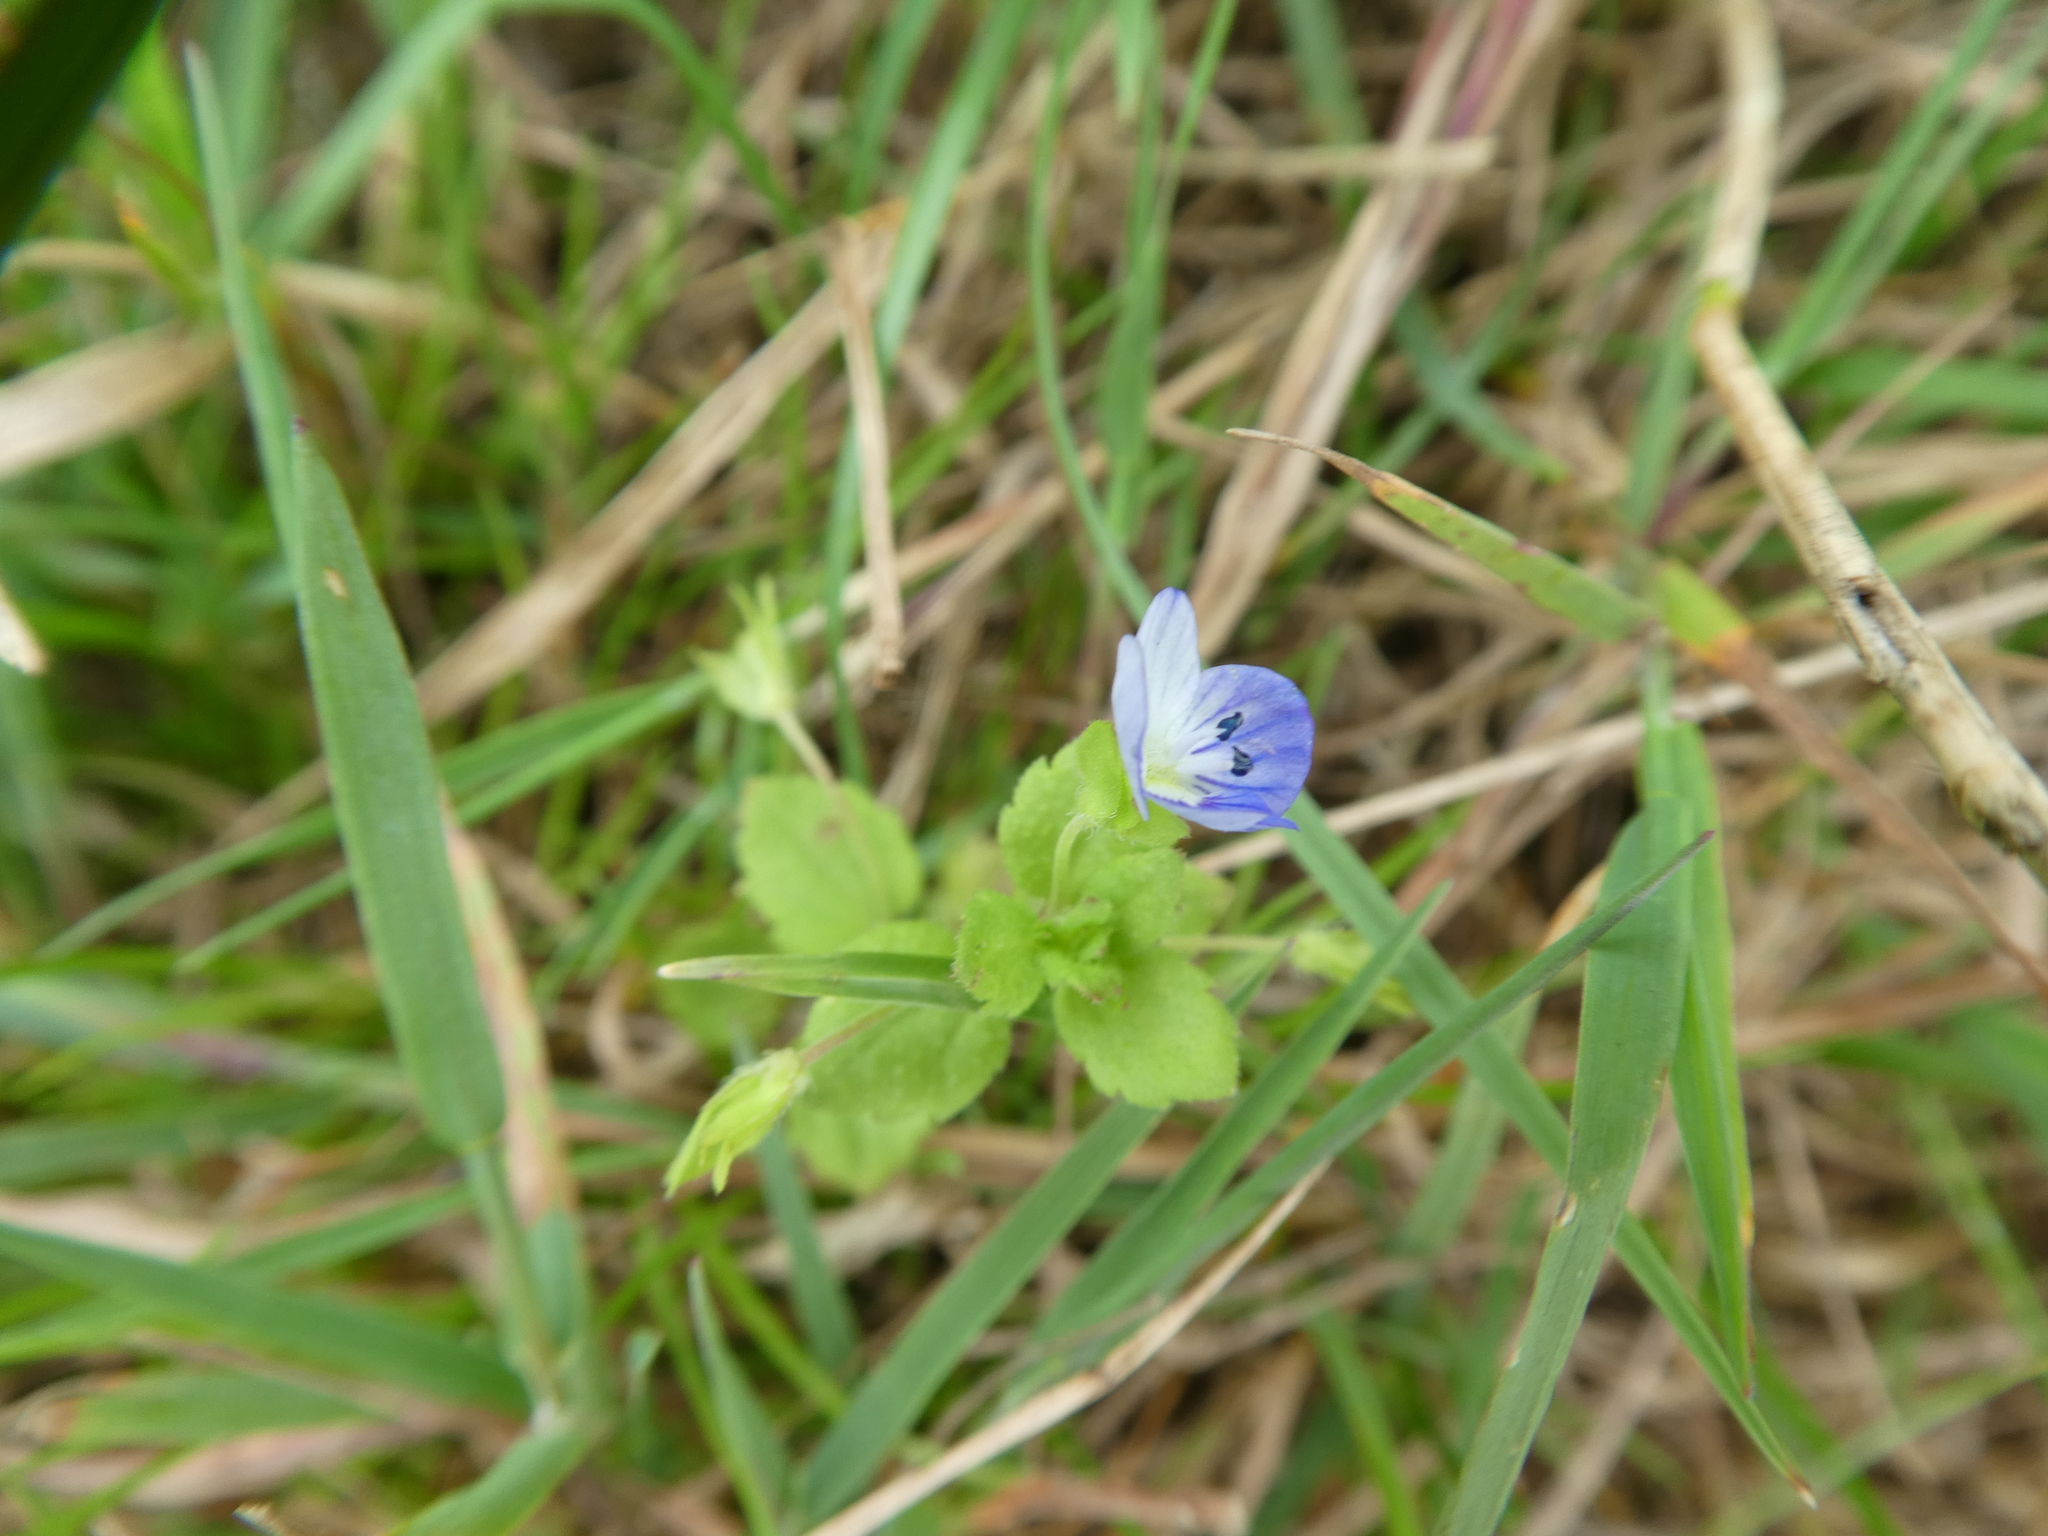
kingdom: Plantae
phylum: Tracheophyta
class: Magnoliopsida
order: Lamiales
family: Plantaginaceae
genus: Veronica
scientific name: Veronica persica
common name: Common field-speedwell
